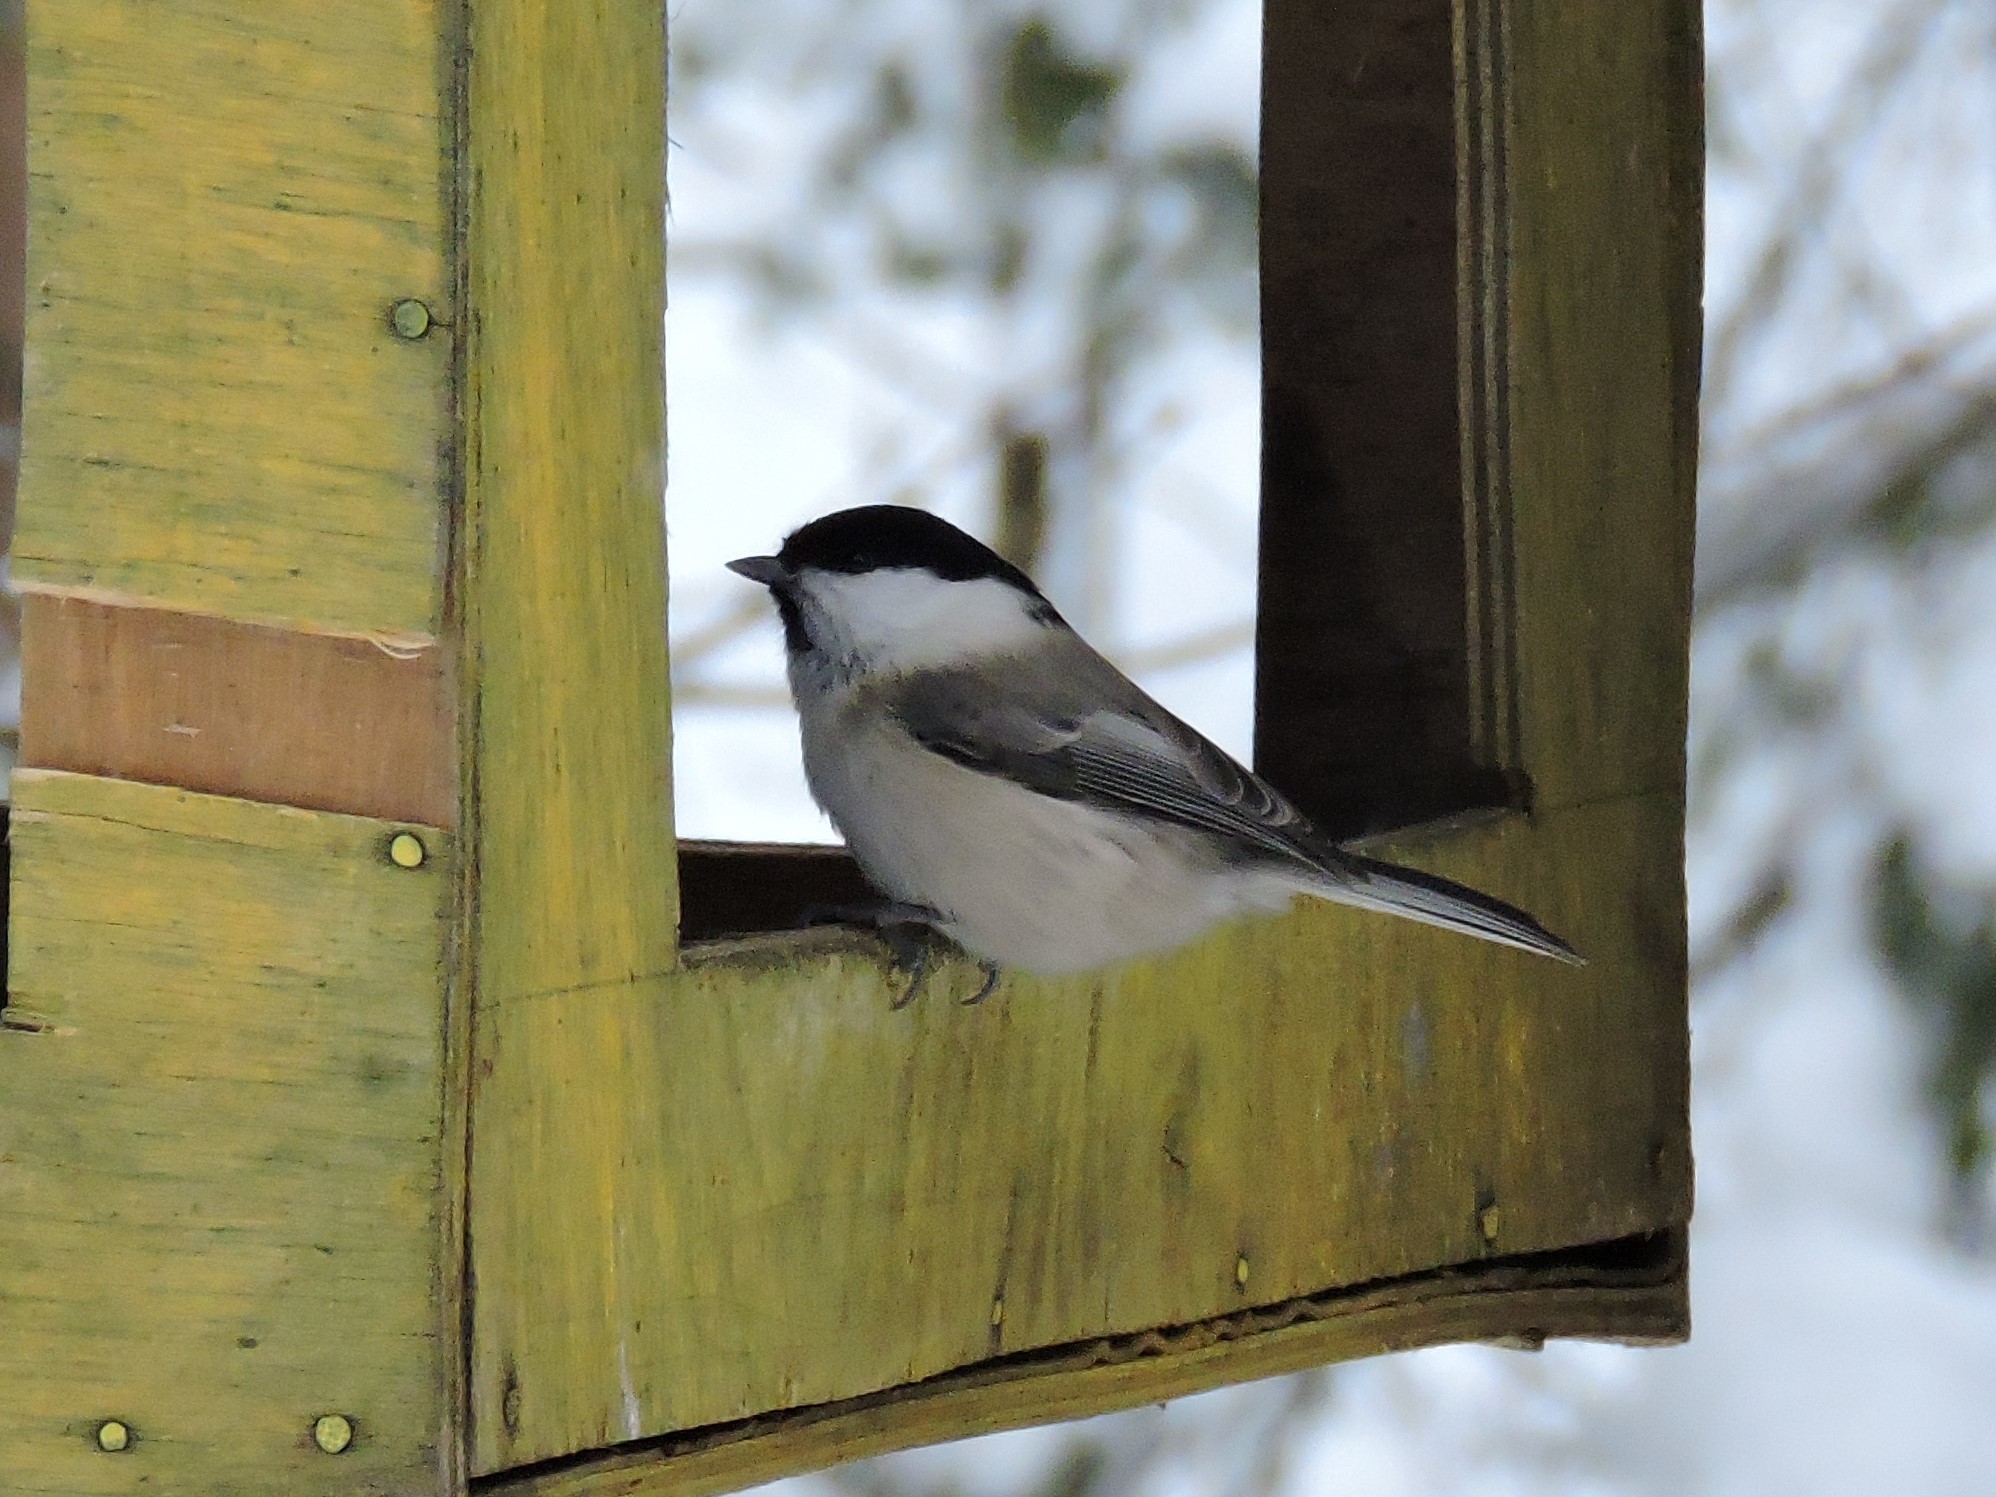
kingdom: Animalia
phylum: Chordata
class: Aves
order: Passeriformes
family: Paridae
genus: Poecile
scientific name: Poecile montanus
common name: Willow tit
